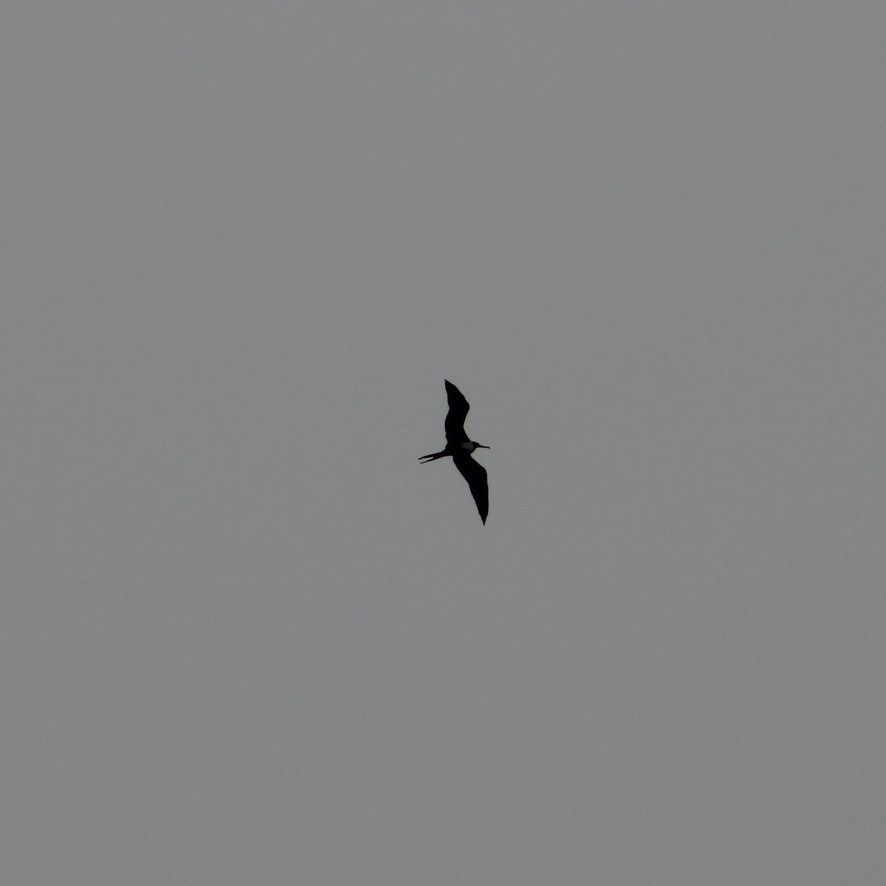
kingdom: Animalia
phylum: Chordata
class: Aves
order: Suliformes
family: Fregatidae
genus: Fregata
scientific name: Fregata magnificens
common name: Magnificent frigatebird
